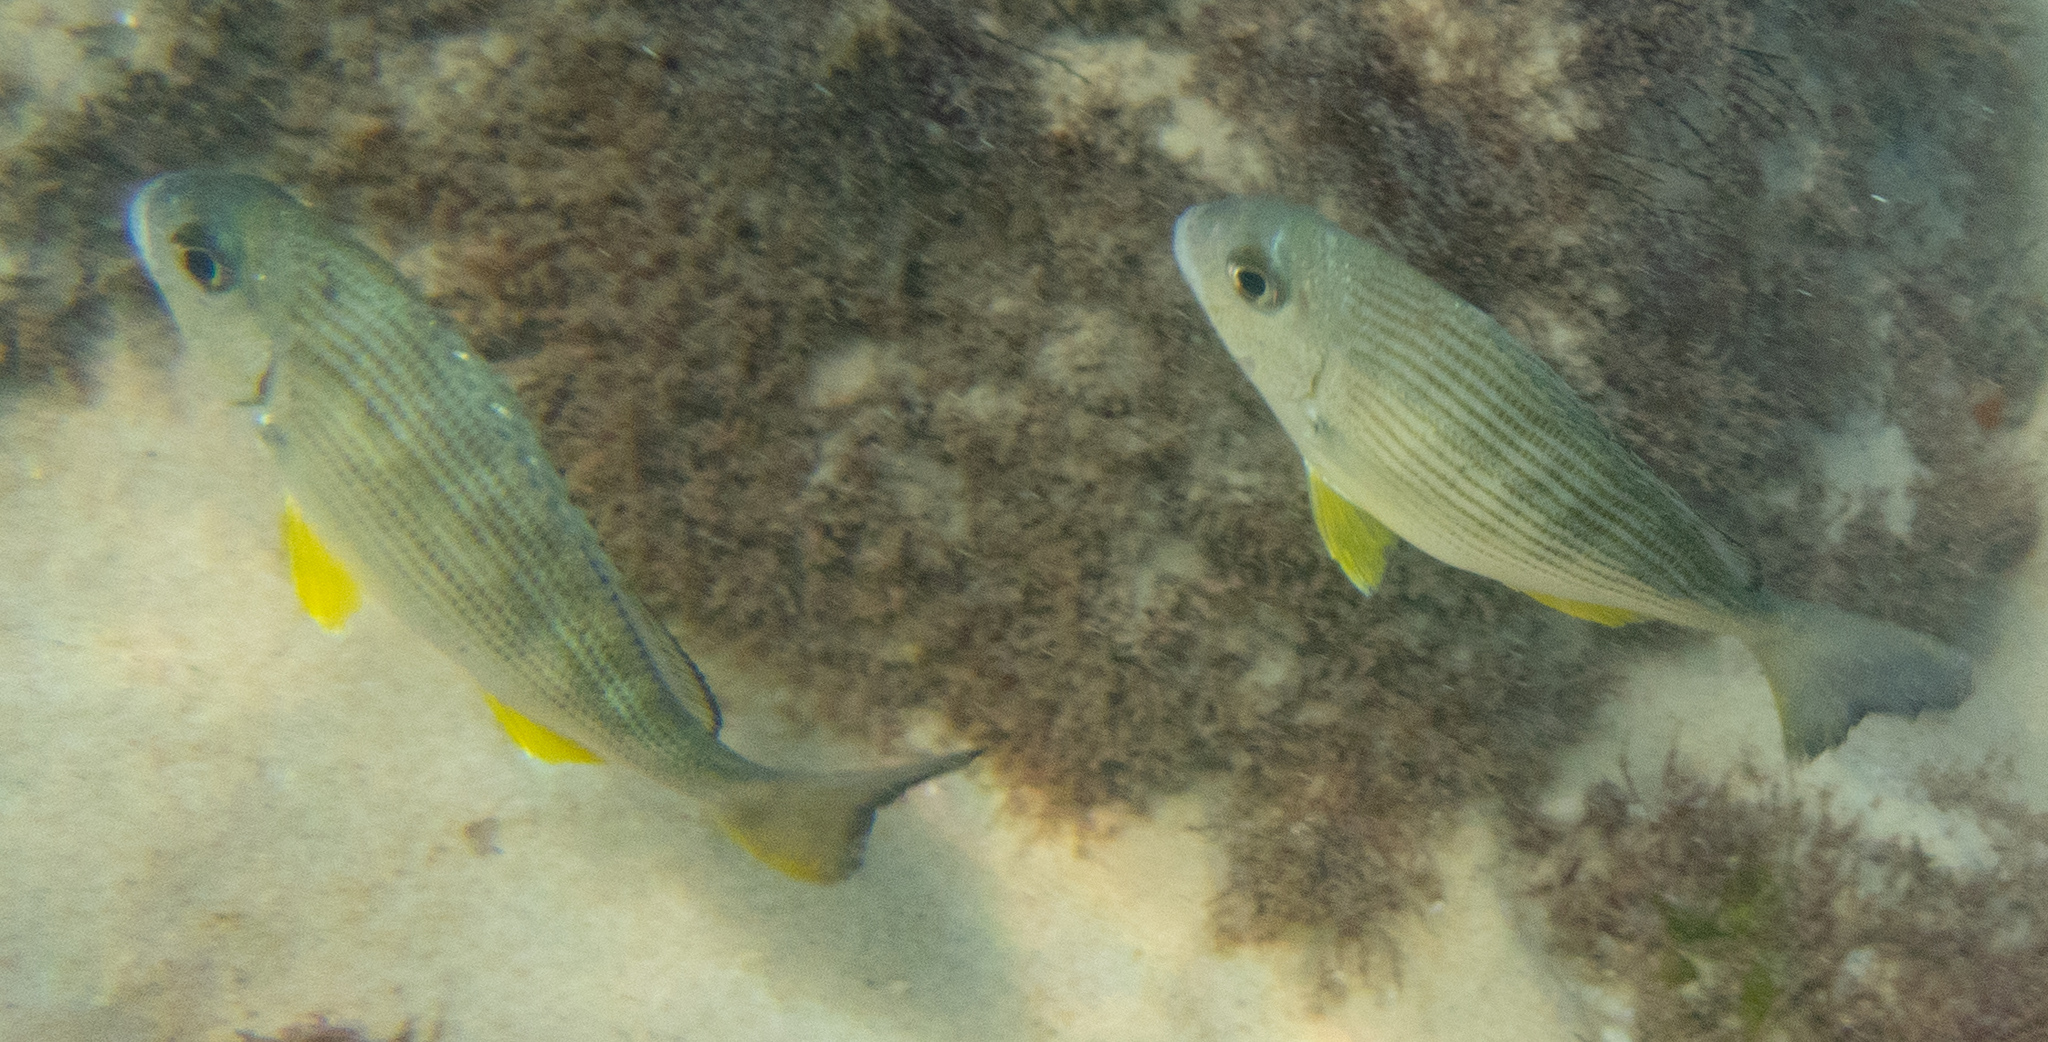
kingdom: Animalia
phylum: Chordata
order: Perciformes
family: Sparidae
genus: Rhabdosargus
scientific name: Rhabdosargus sarba
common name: Goldlined seabream
